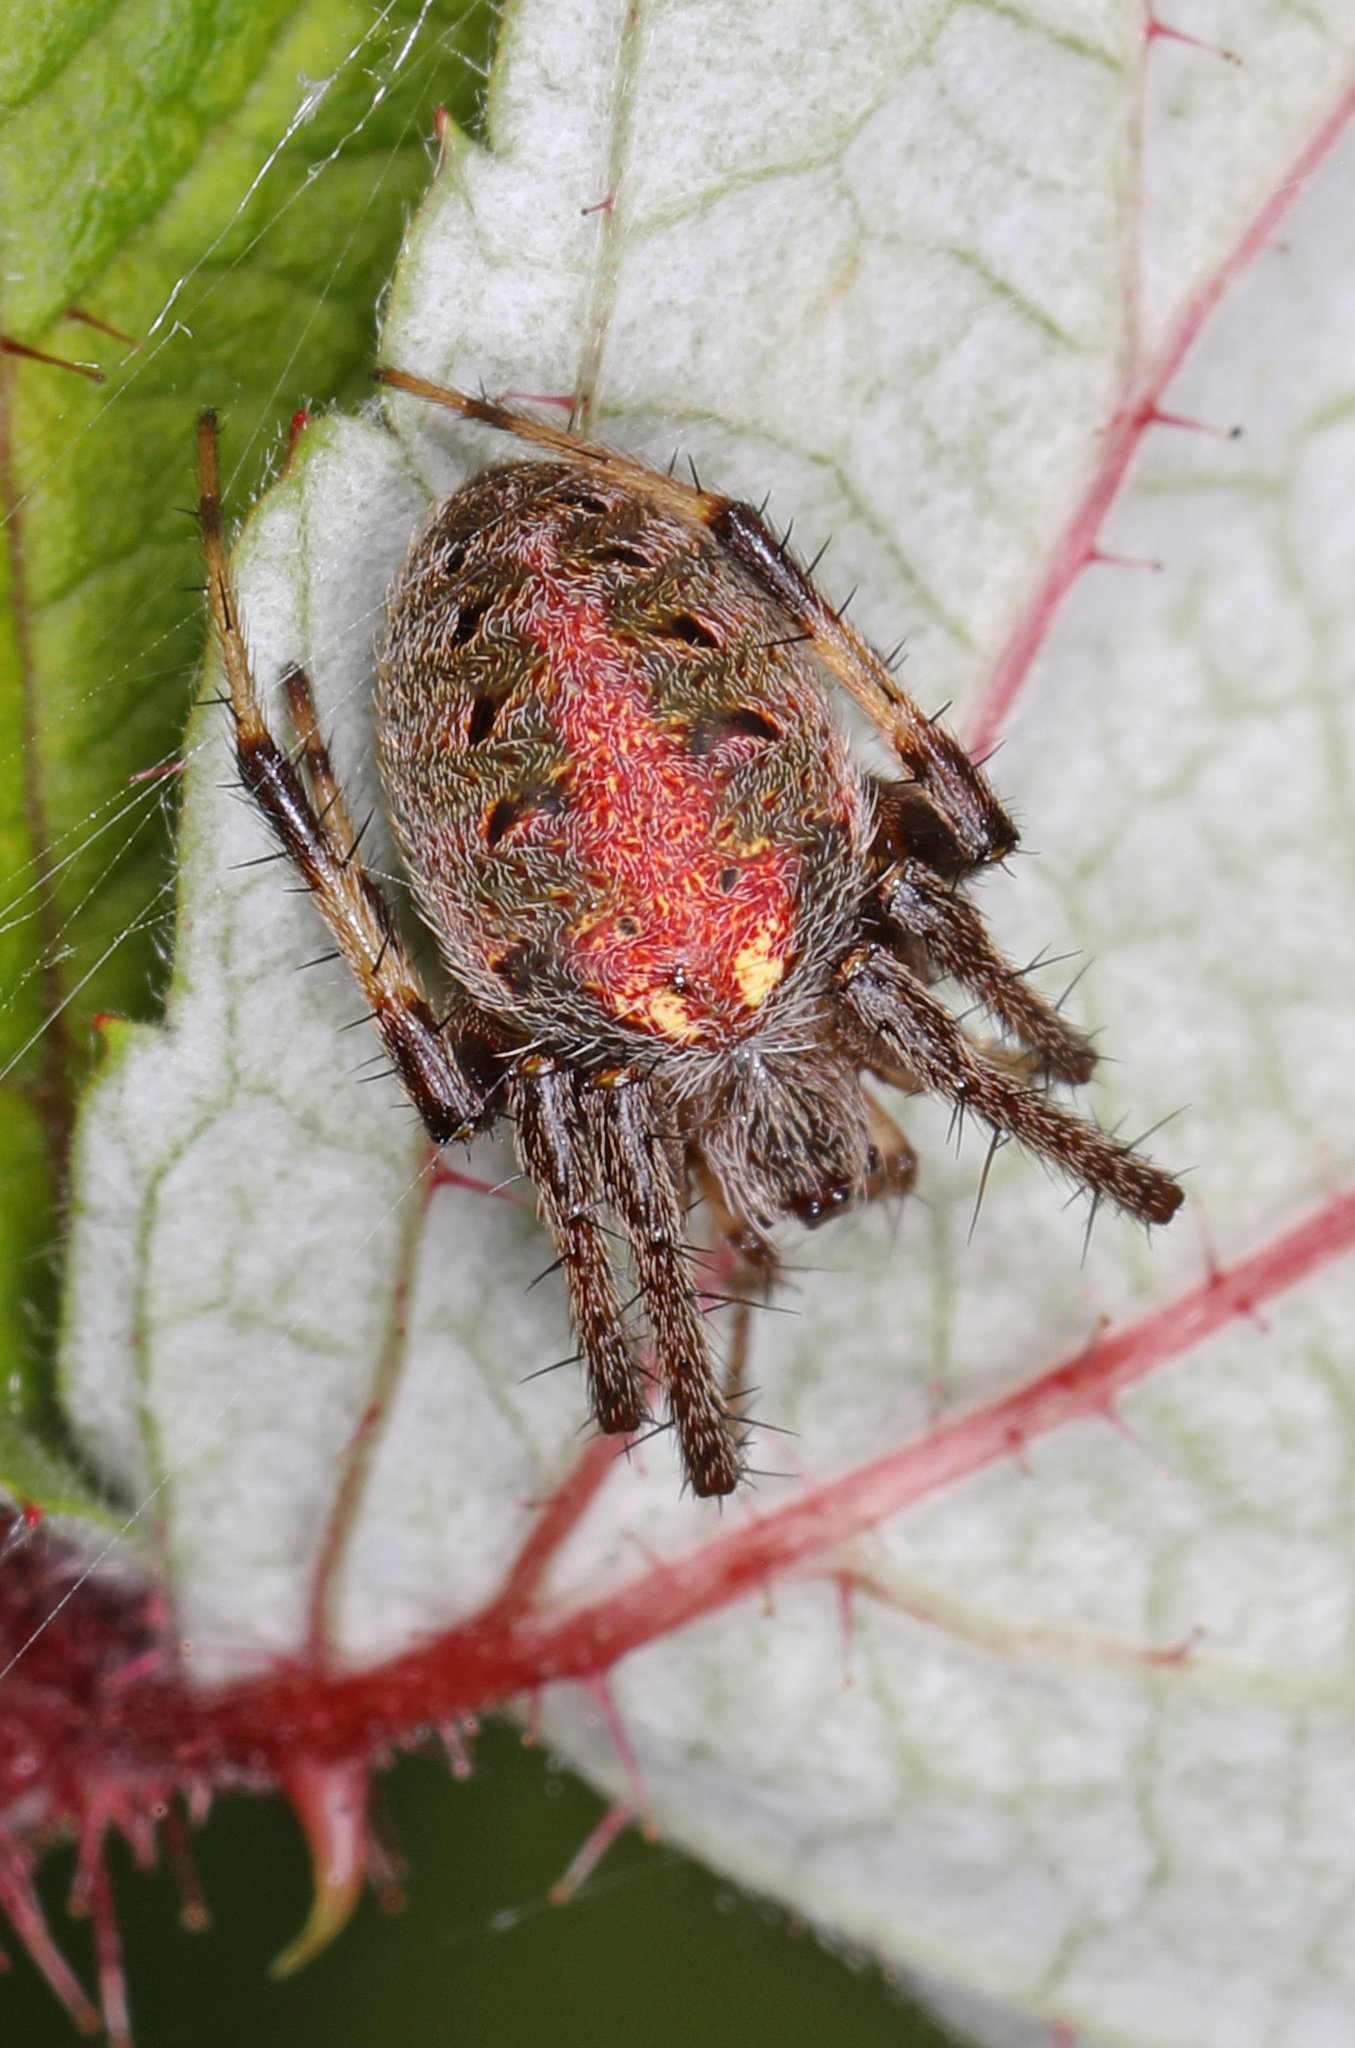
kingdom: Animalia
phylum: Arthropoda
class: Arachnida
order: Araneae
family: Araneidae
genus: Neoscona
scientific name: Neoscona arabesca
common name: Orb weavers
